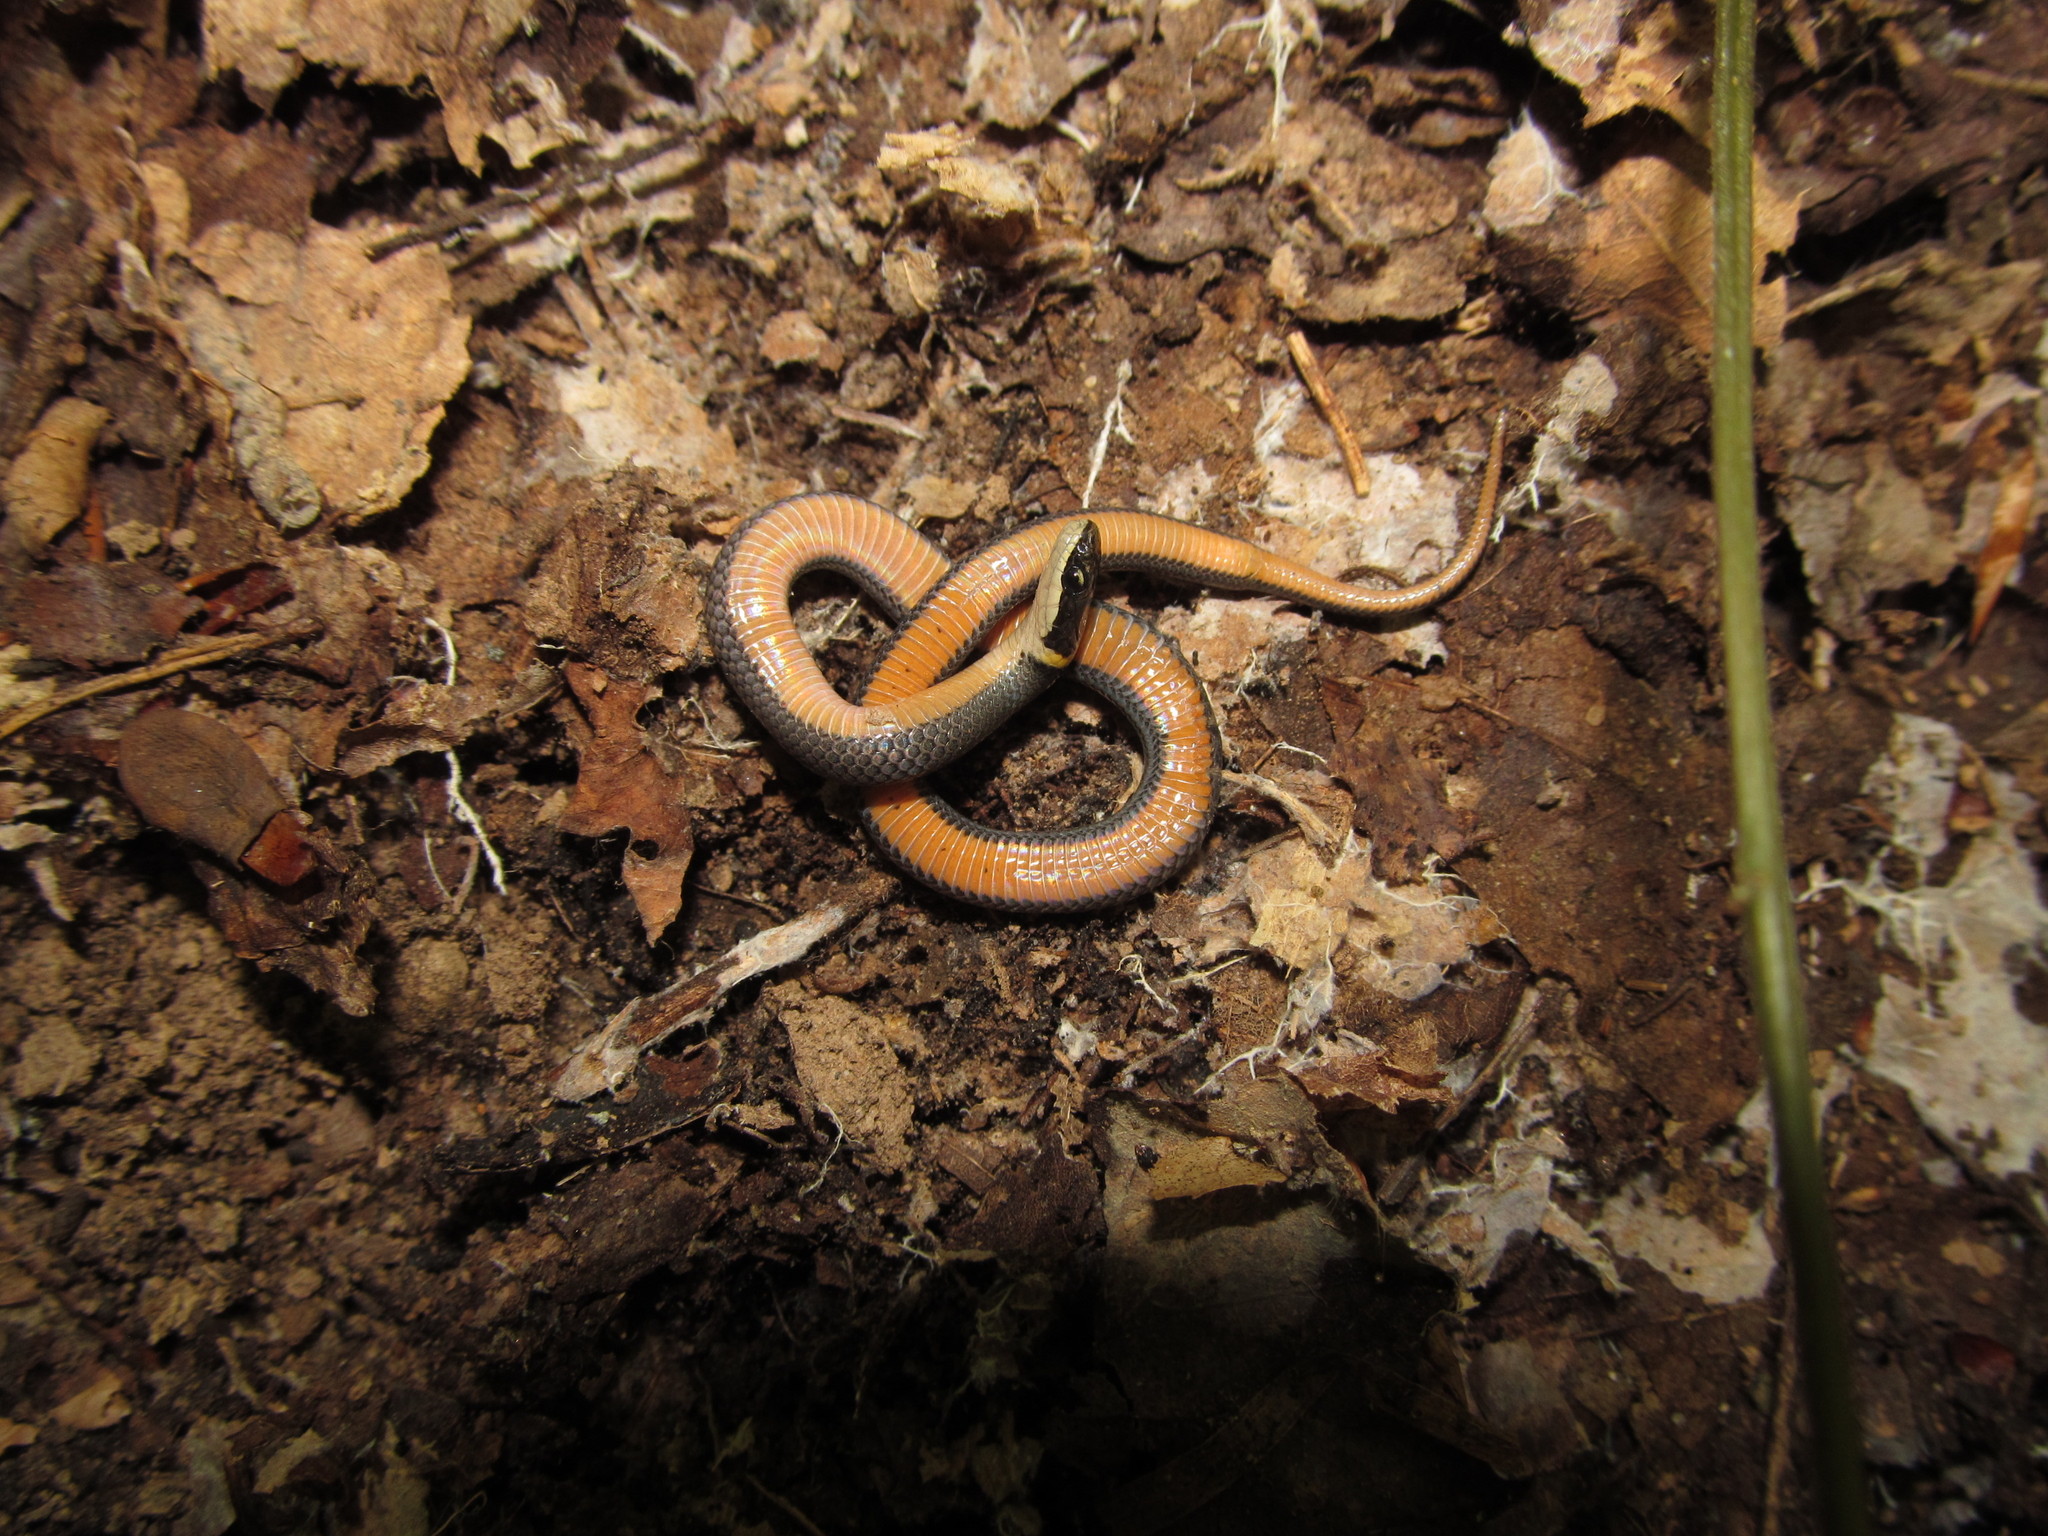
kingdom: Animalia
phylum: Chordata
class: Squamata
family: Colubridae
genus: Diadophis
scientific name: Diadophis punctatus
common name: Ringneck snake
